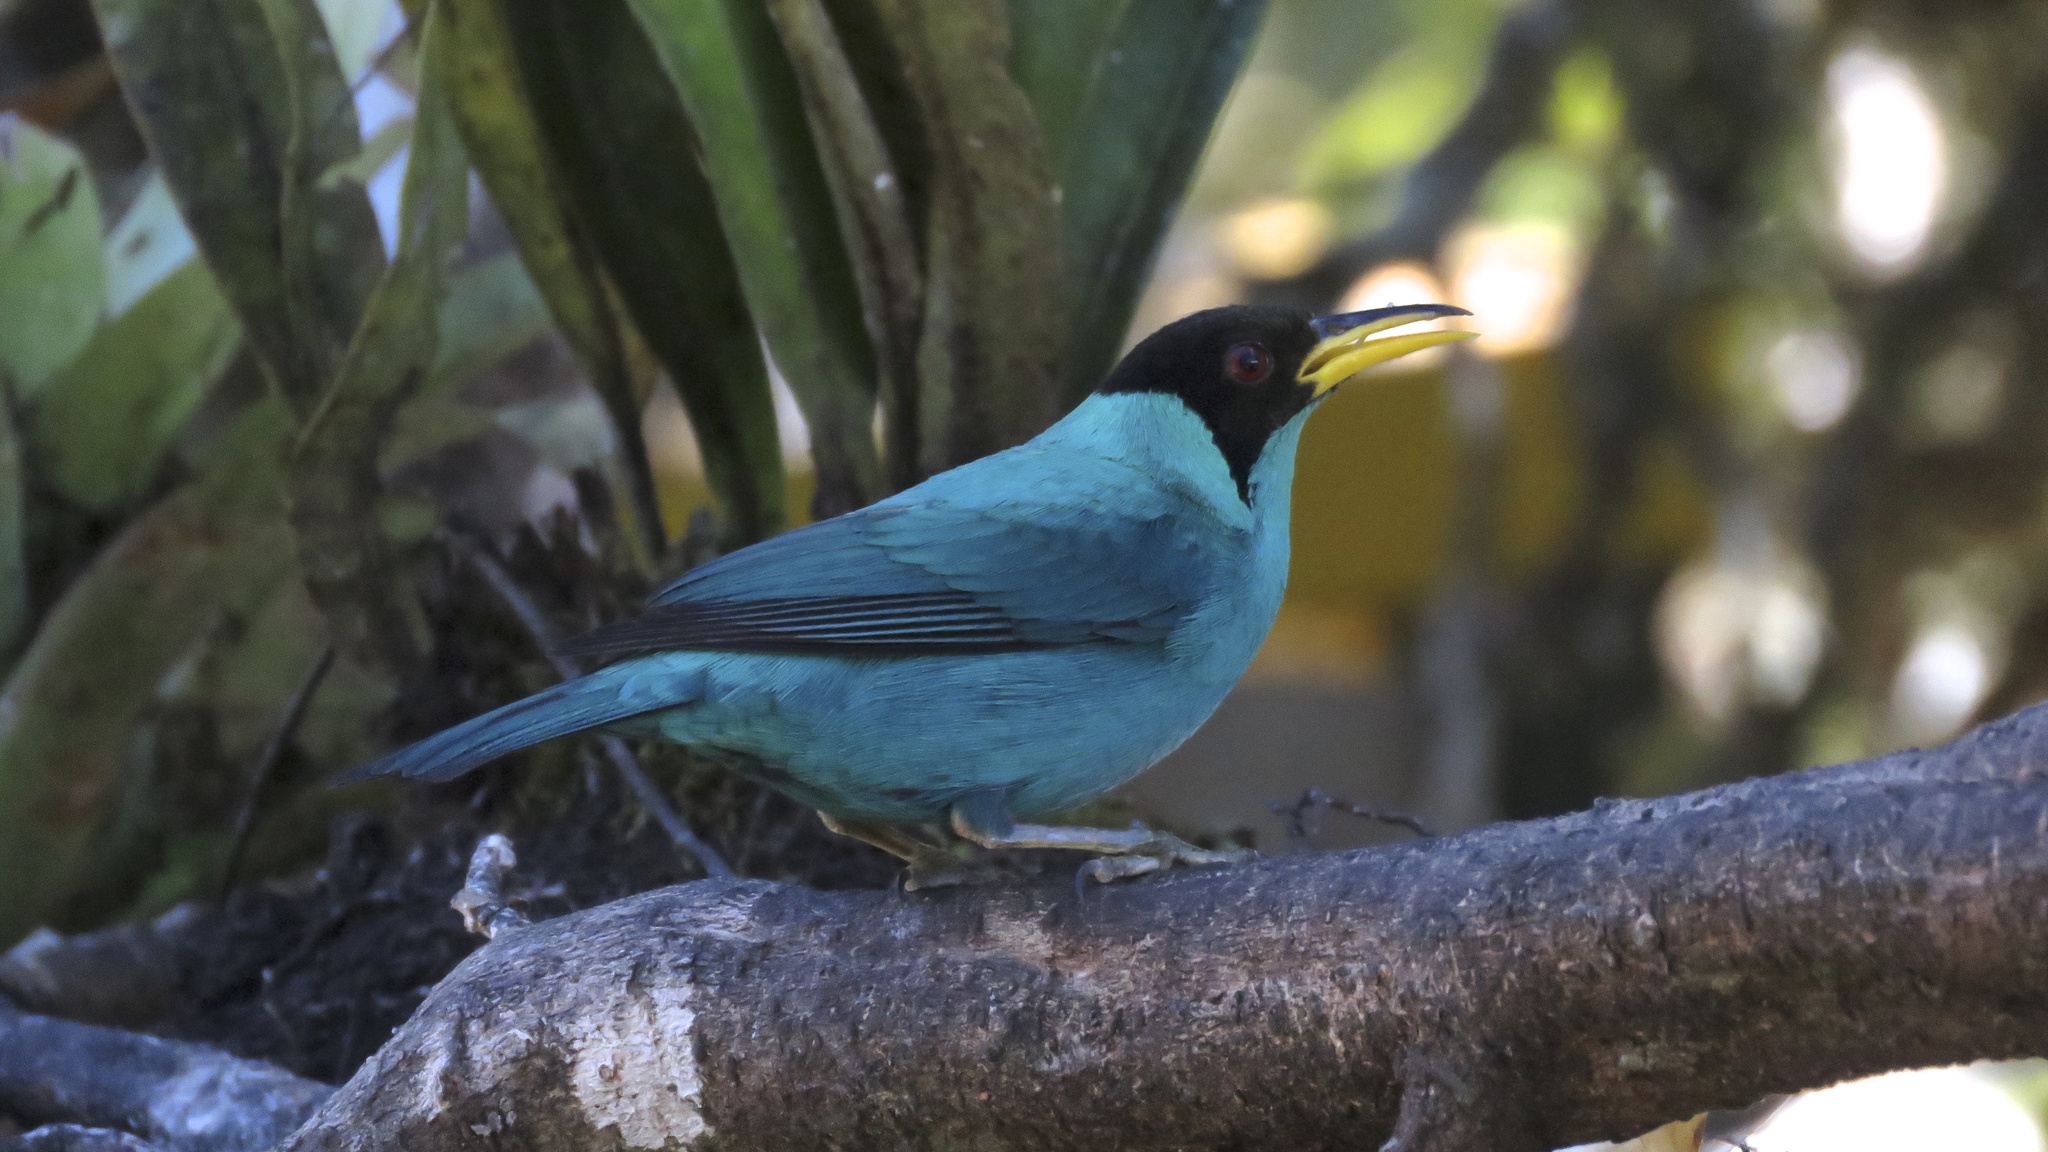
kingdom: Animalia
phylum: Chordata
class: Aves
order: Passeriformes
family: Thraupidae
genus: Chlorophanes
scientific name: Chlorophanes spiza
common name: Green honeycreeper
